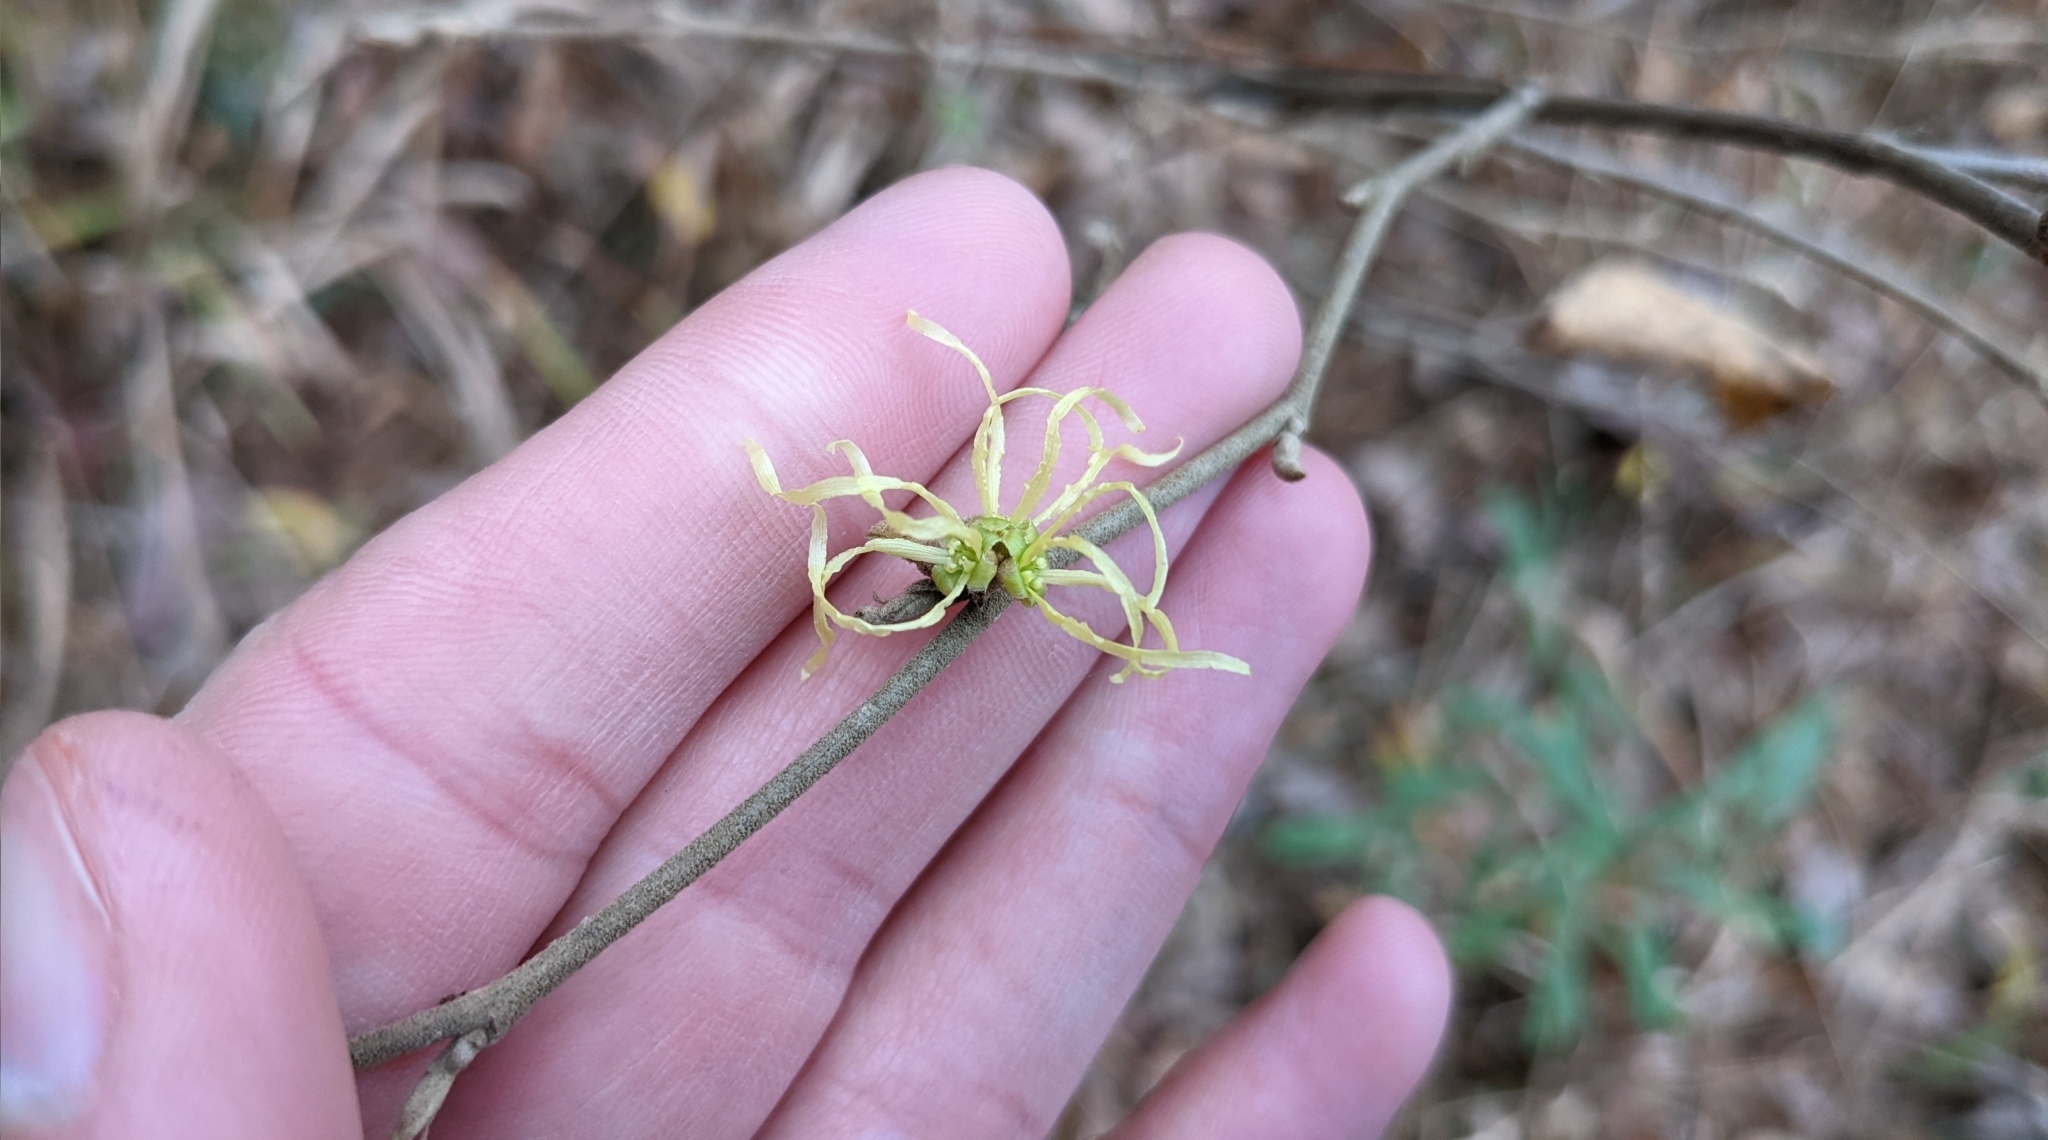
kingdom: Plantae
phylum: Tracheophyta
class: Magnoliopsida
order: Saxifragales
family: Hamamelidaceae
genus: Hamamelis
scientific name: Hamamelis virginiana
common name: Witch-hazel
